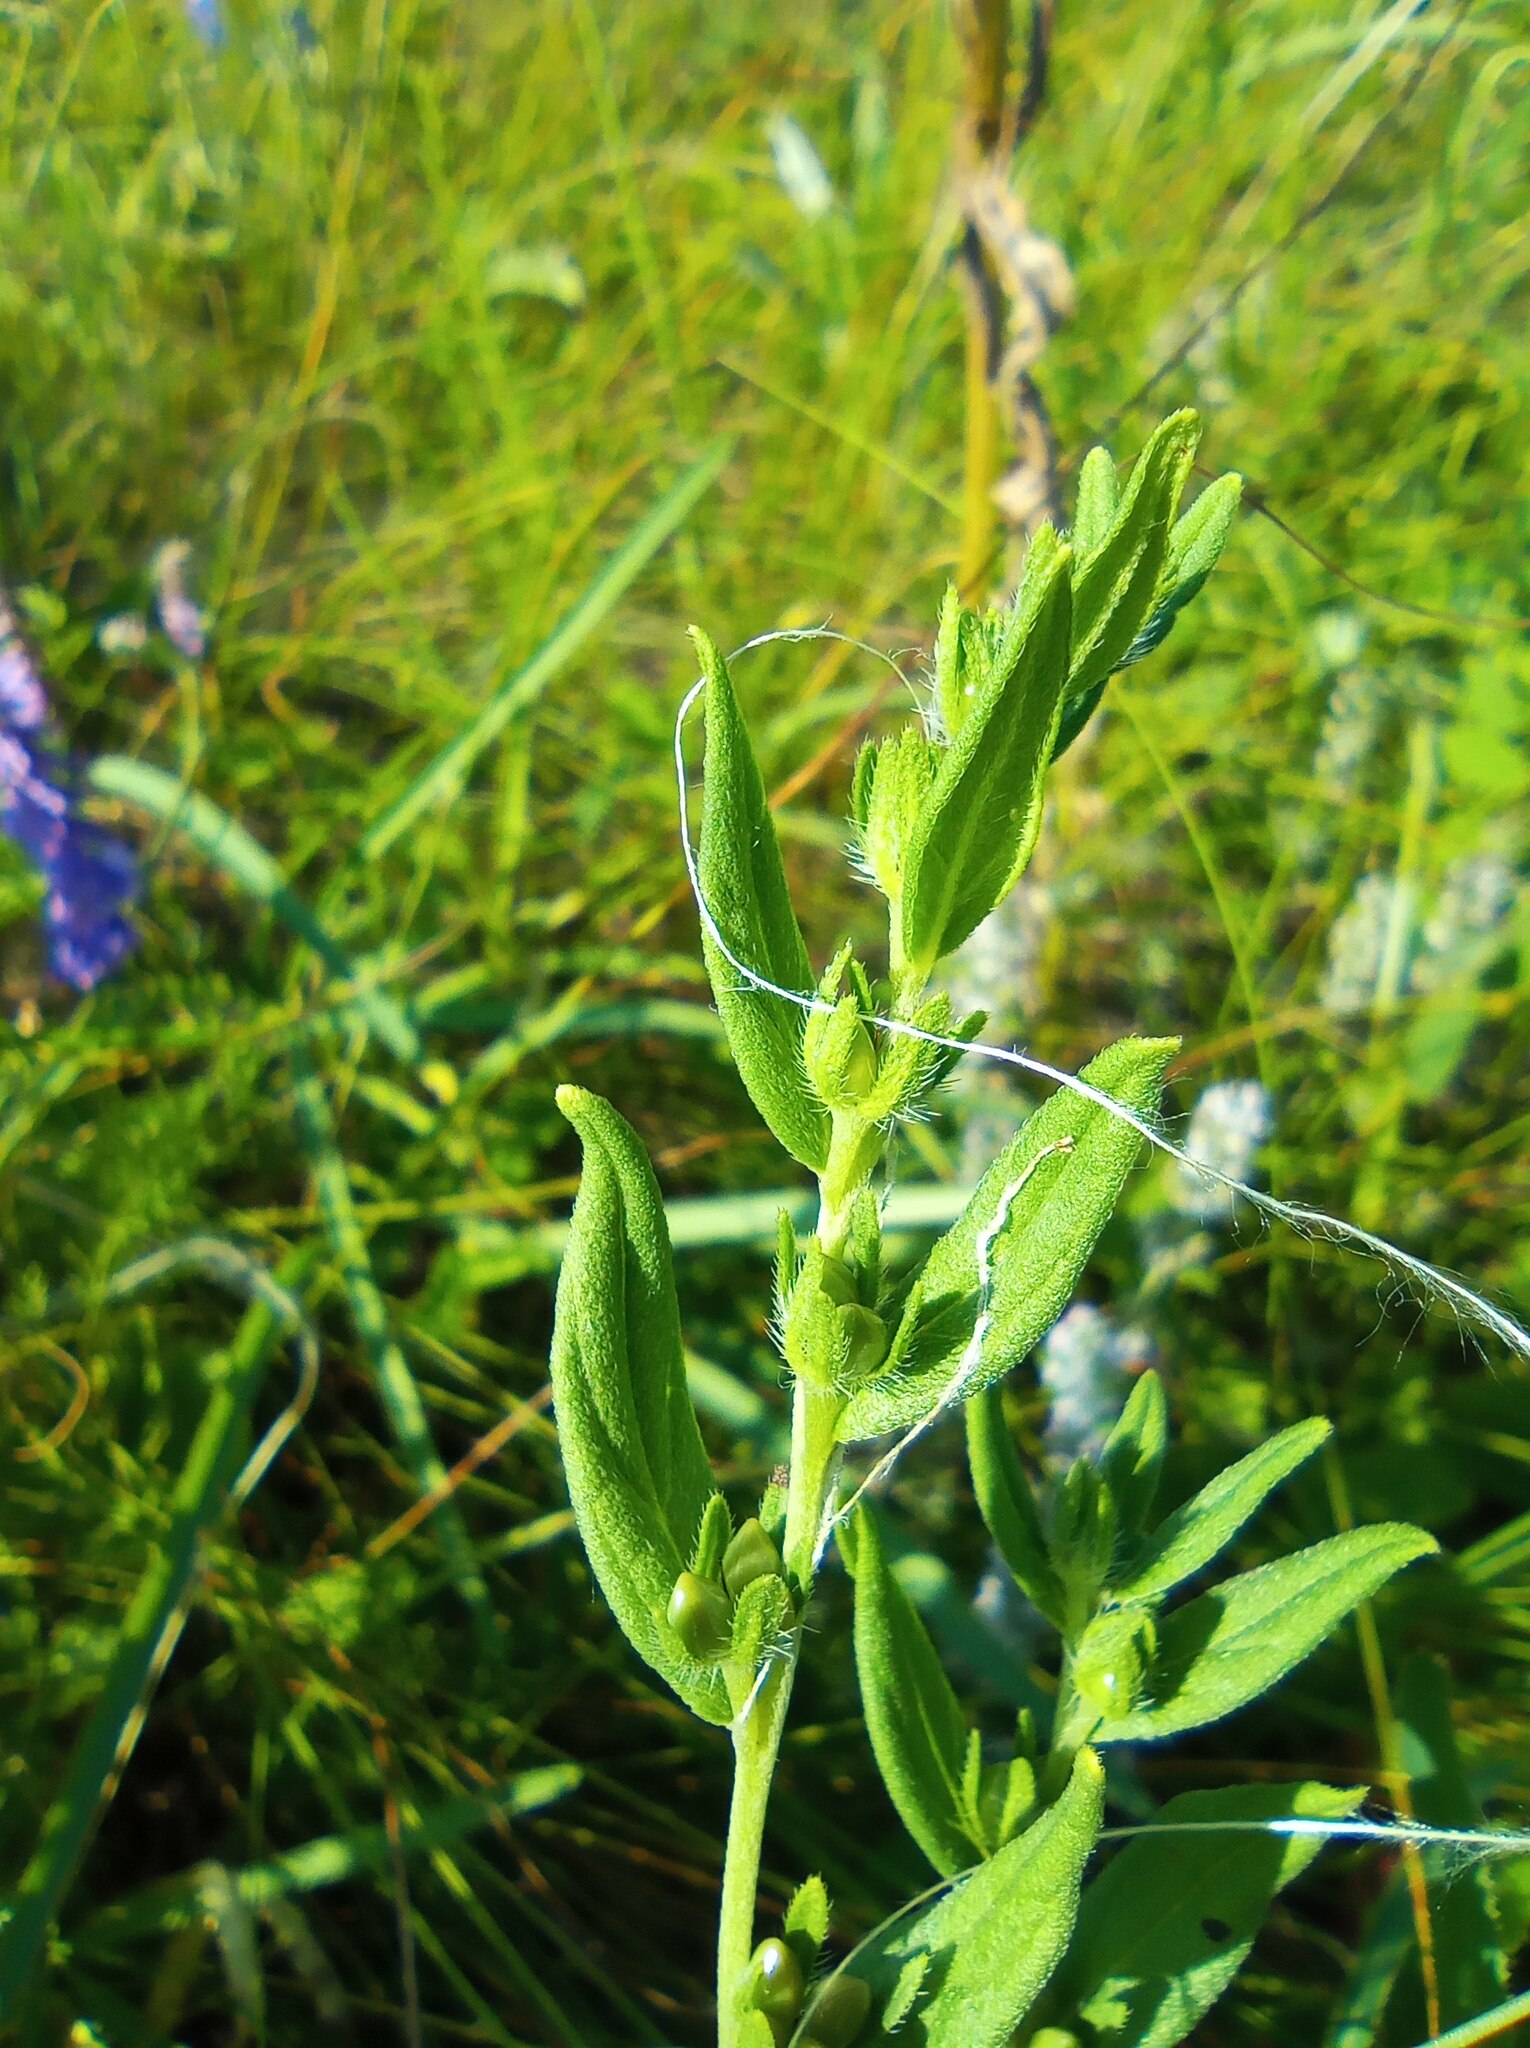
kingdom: Plantae
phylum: Tracheophyta
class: Magnoliopsida
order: Boraginales
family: Boraginaceae
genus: Lithospermum
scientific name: Lithospermum officinale
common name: Common gromwell
